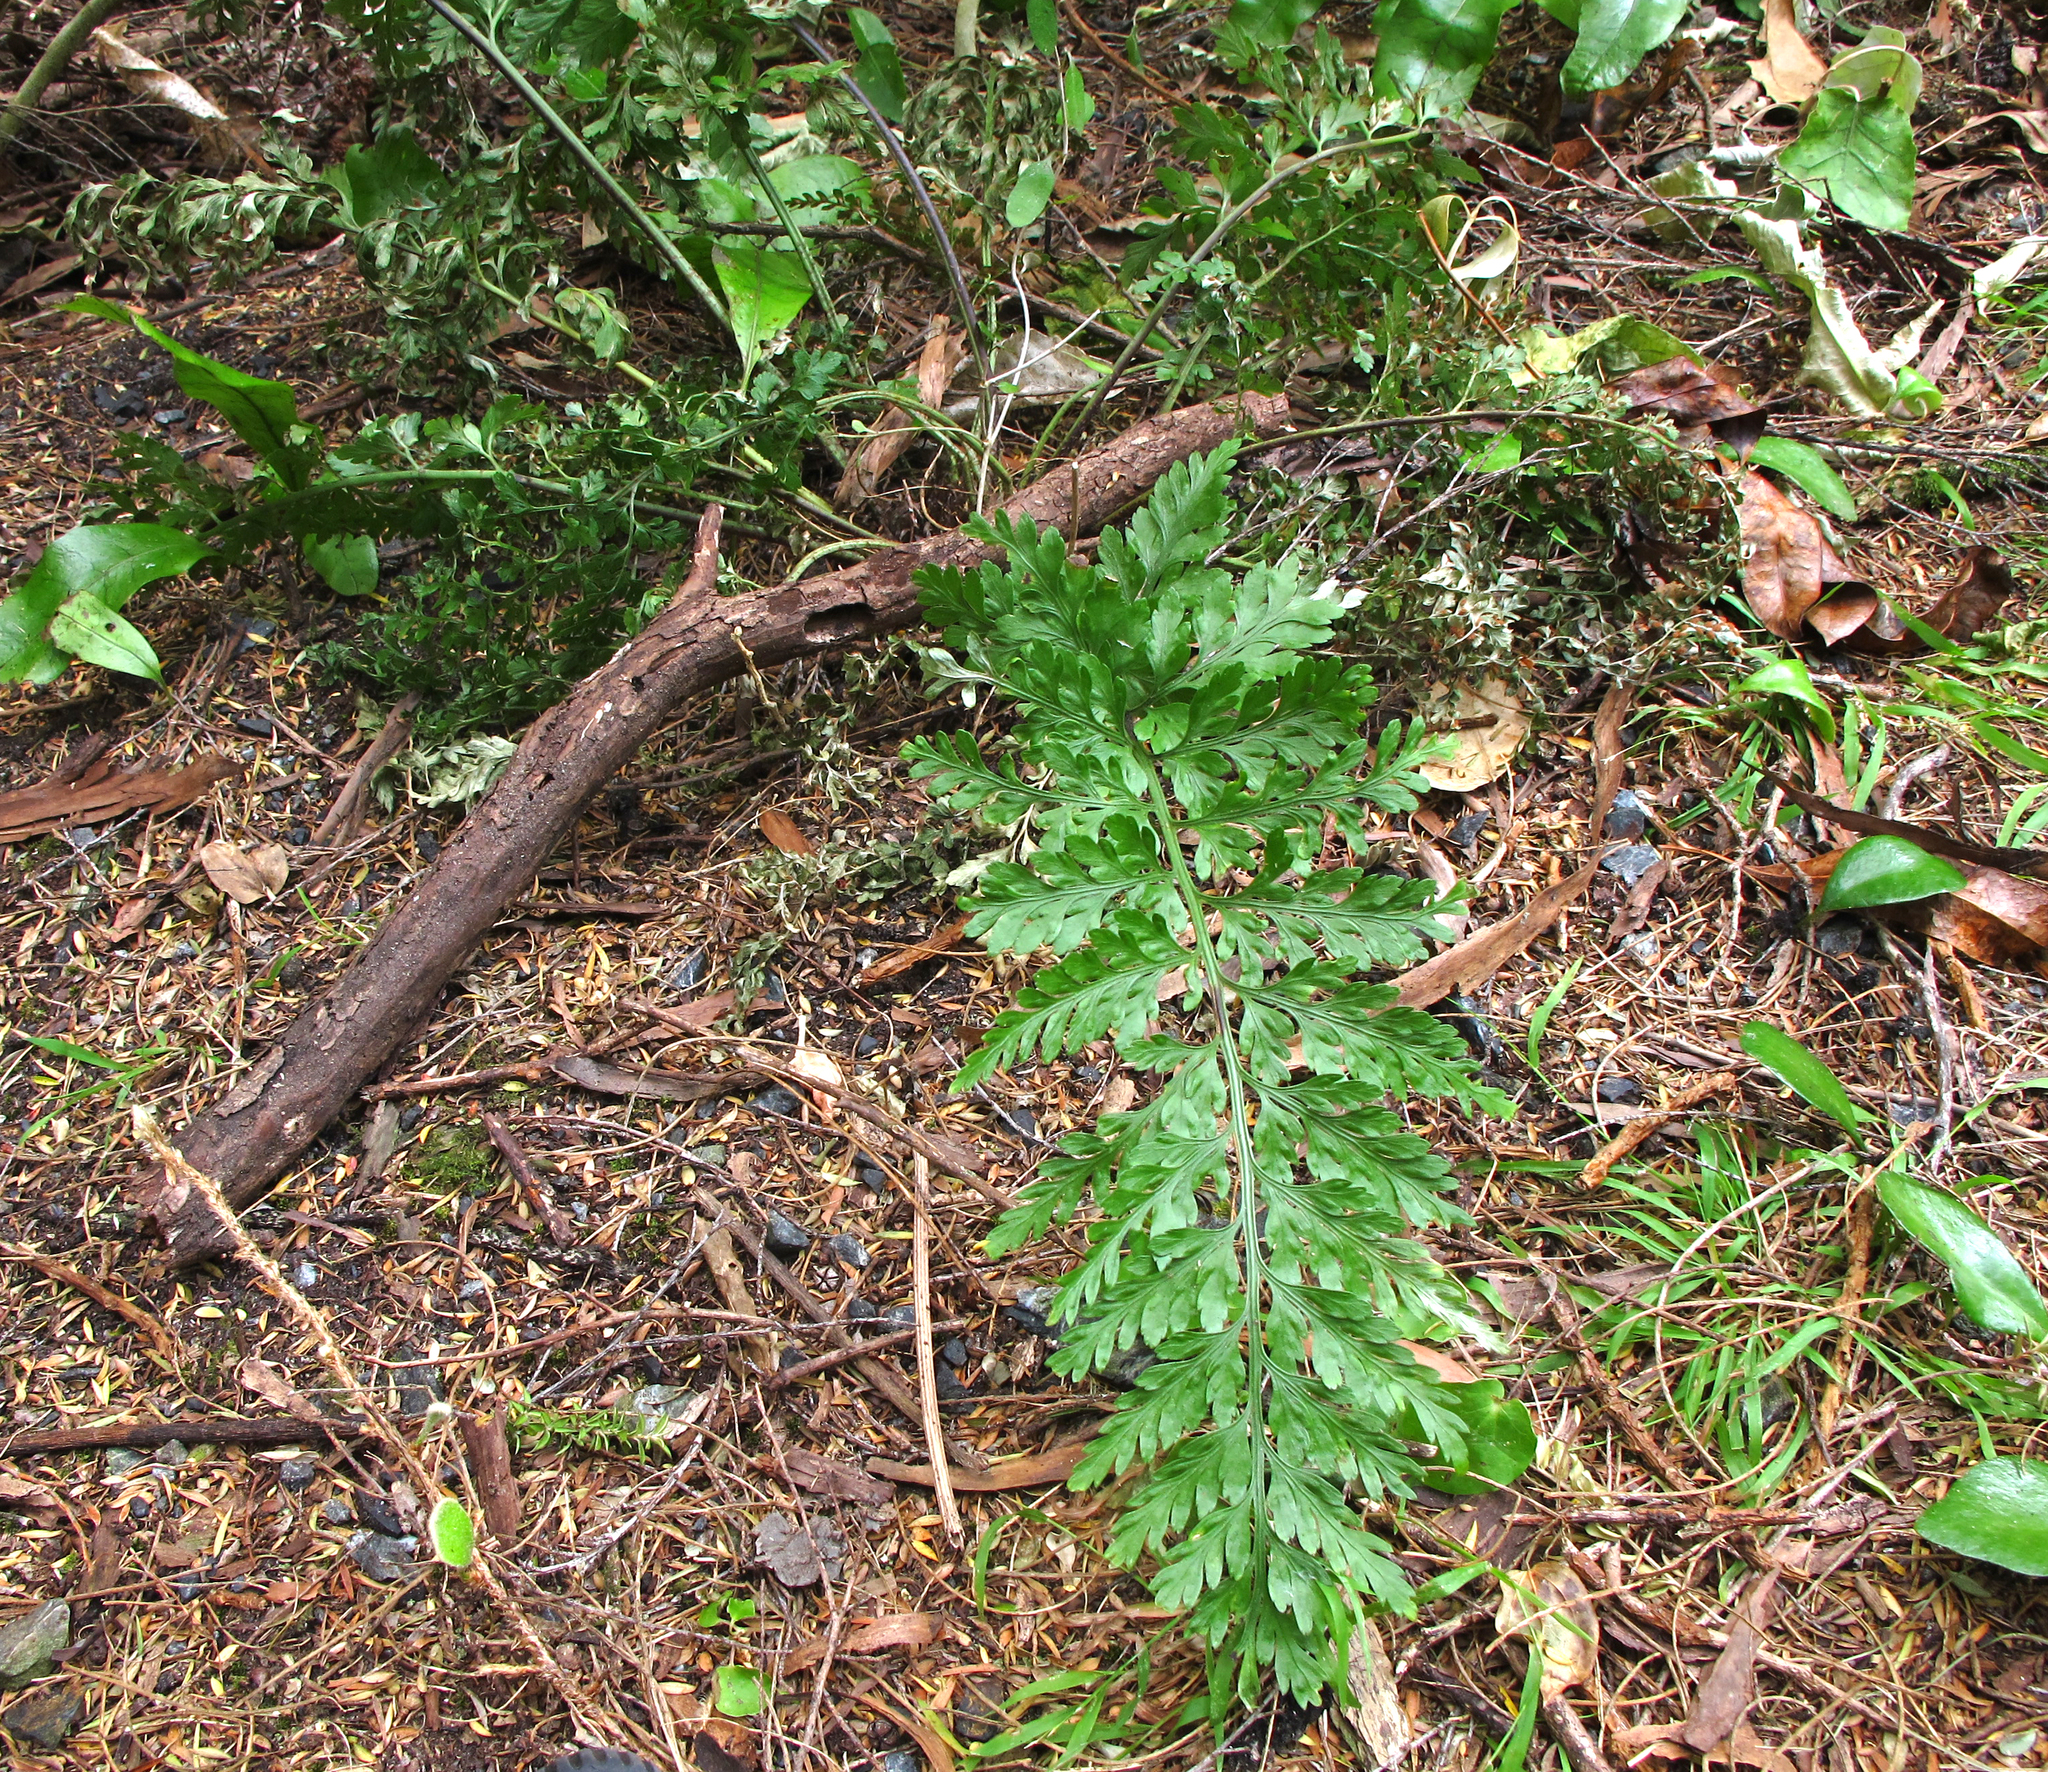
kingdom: Plantae
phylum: Tracheophyta
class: Polypodiopsida
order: Polypodiales
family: Aspleniaceae
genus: Asplenium
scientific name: Asplenium
